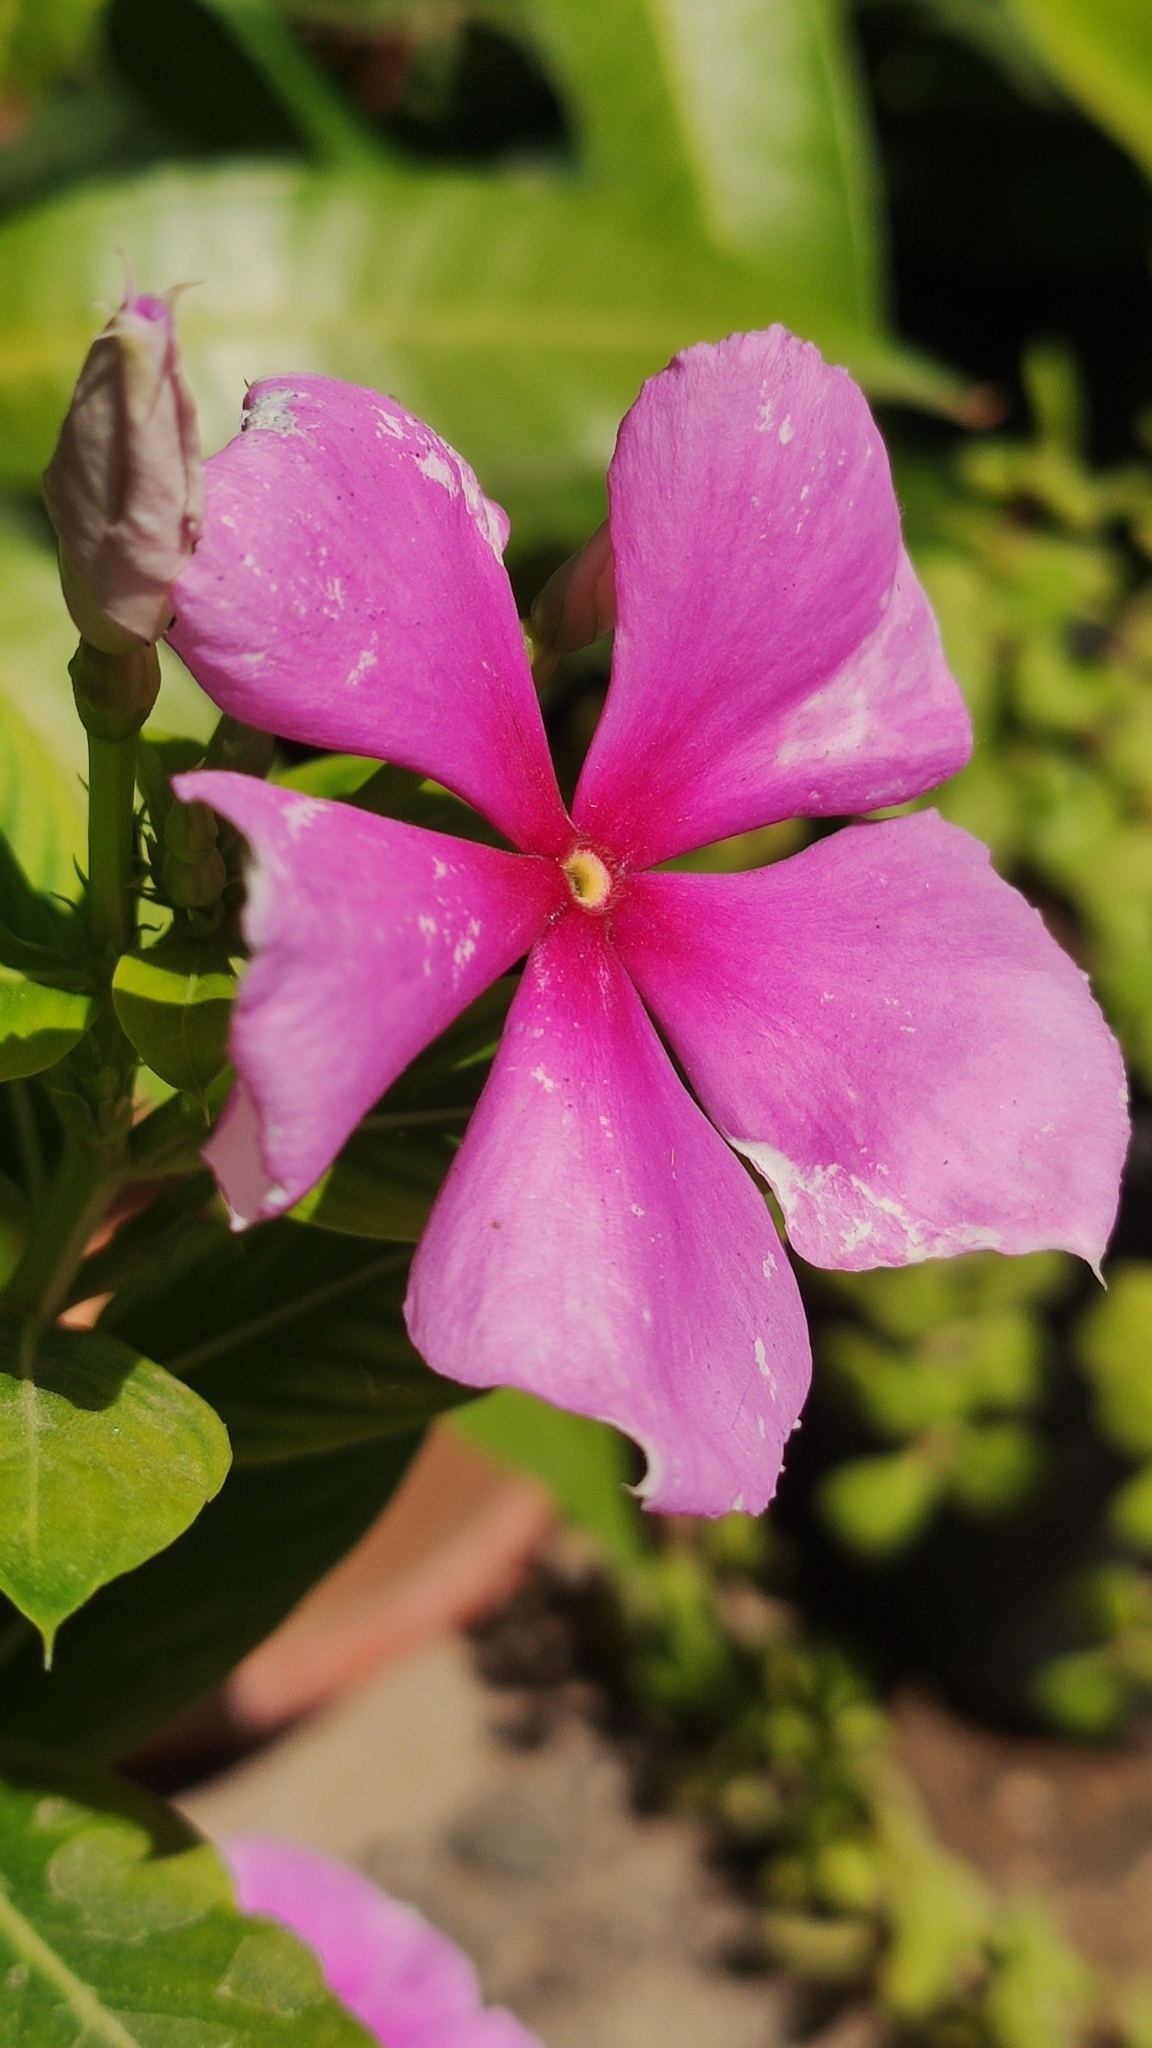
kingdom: Plantae
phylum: Tracheophyta
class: Magnoliopsida
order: Gentianales
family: Apocynaceae
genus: Catharanthus
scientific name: Catharanthus roseus
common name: Madagascar periwinkle
